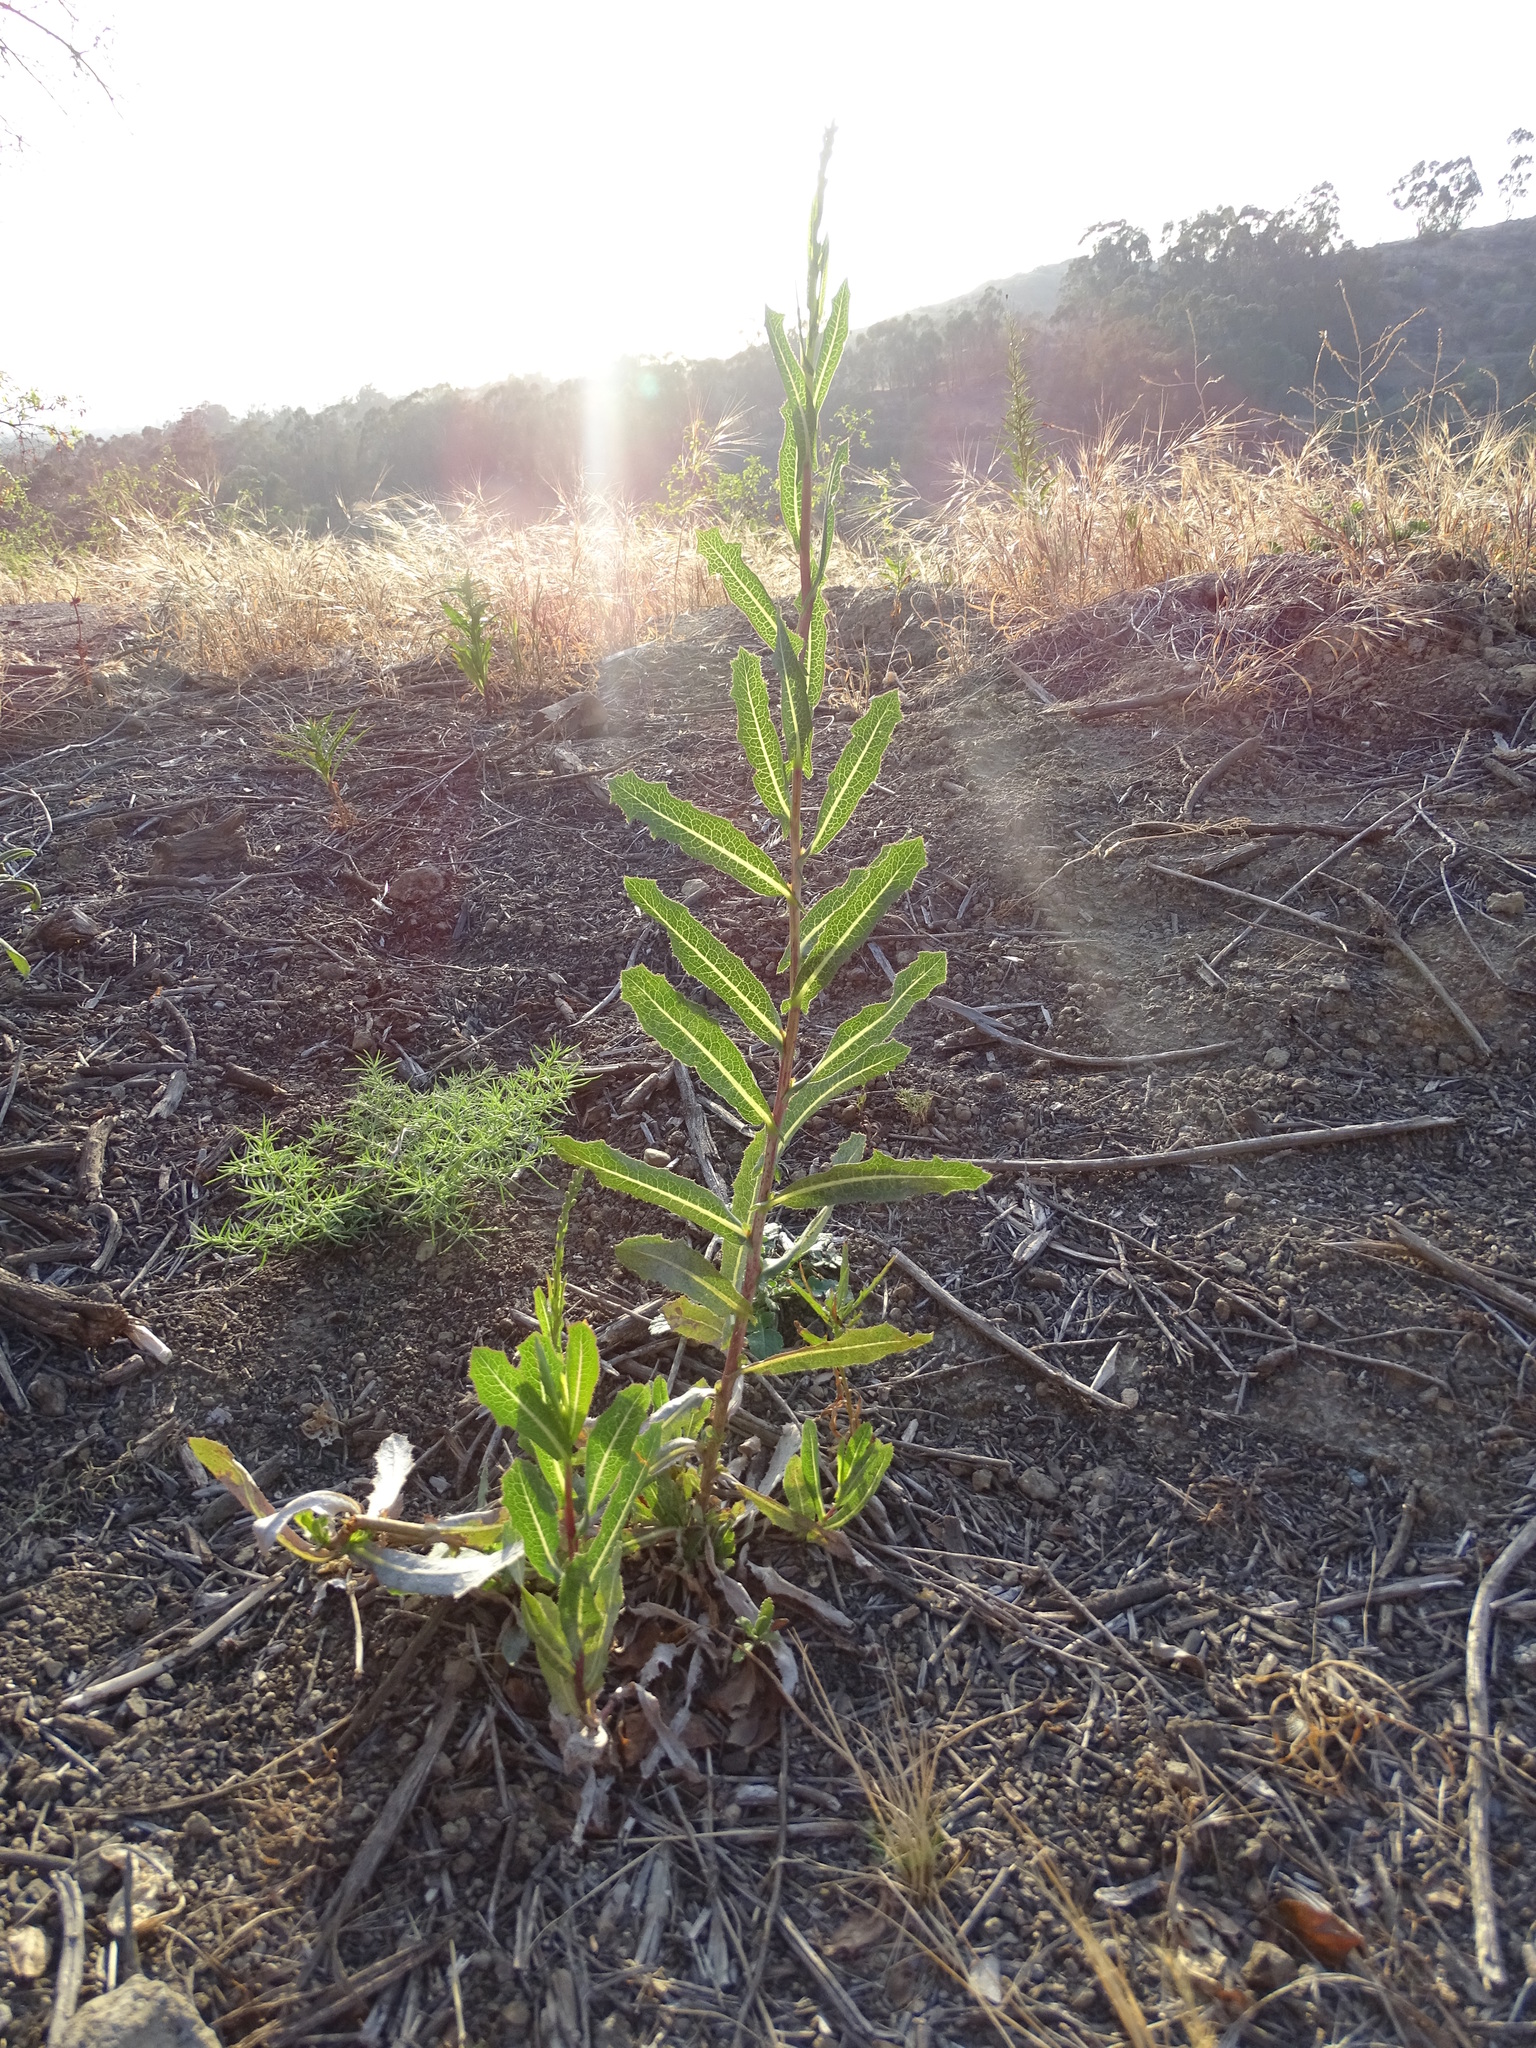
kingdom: Plantae
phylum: Tracheophyta
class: Magnoliopsida
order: Asterales
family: Asteraceae
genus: Lactuca
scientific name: Lactuca serriola
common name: Prickly lettuce
